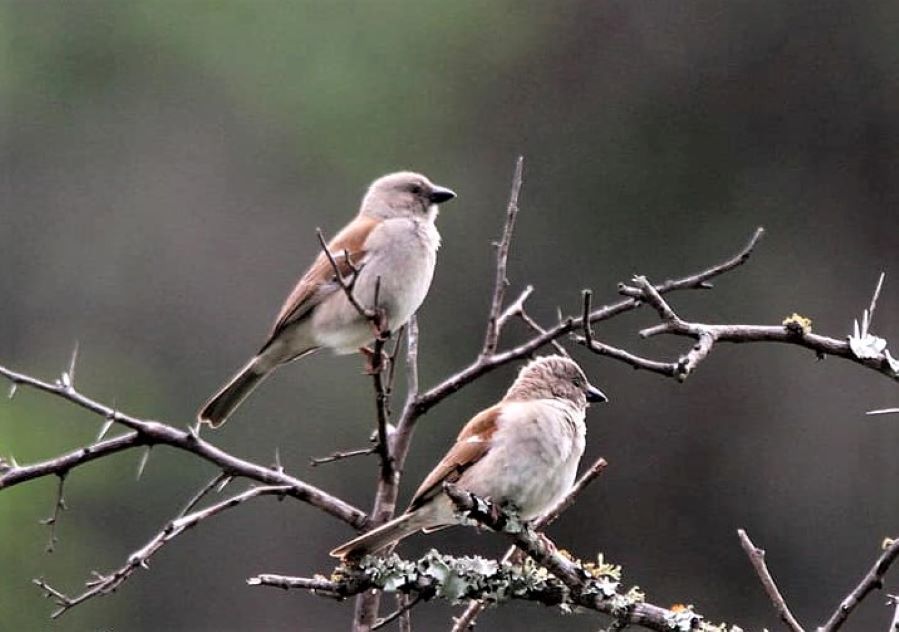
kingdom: Animalia
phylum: Chordata
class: Aves
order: Passeriformes
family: Passeridae
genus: Passer
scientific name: Passer diffusus
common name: Southern grey-headed sparrow
